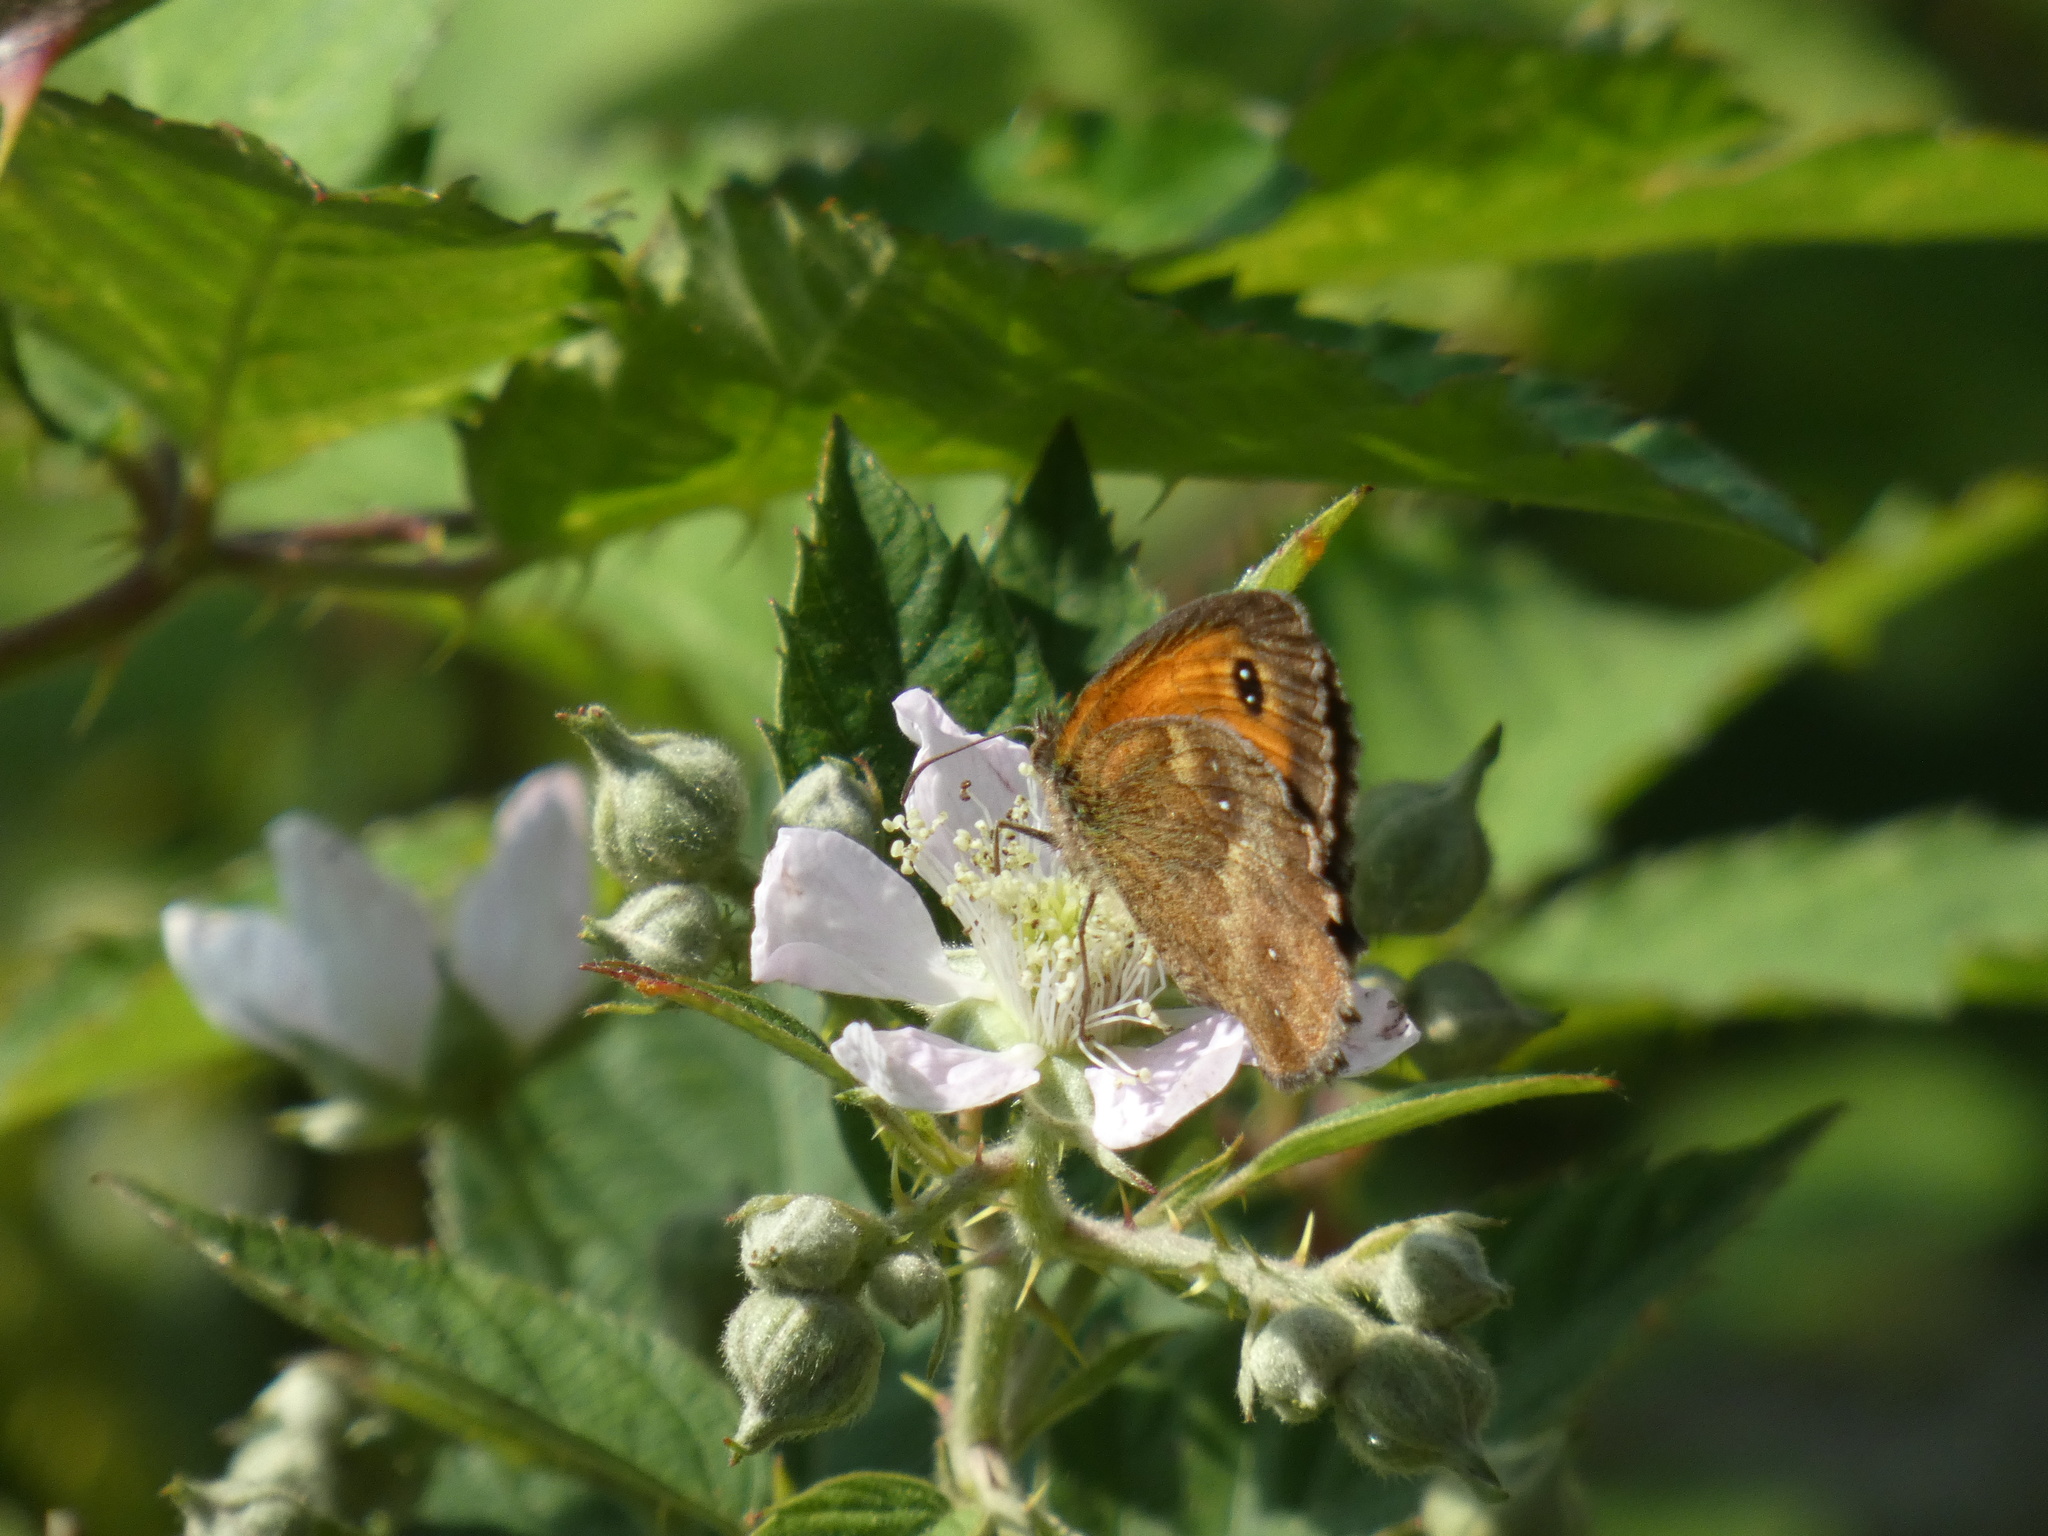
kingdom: Animalia
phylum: Arthropoda
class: Insecta
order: Lepidoptera
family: Nymphalidae
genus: Pyronia
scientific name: Pyronia tithonus
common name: Gatekeeper
